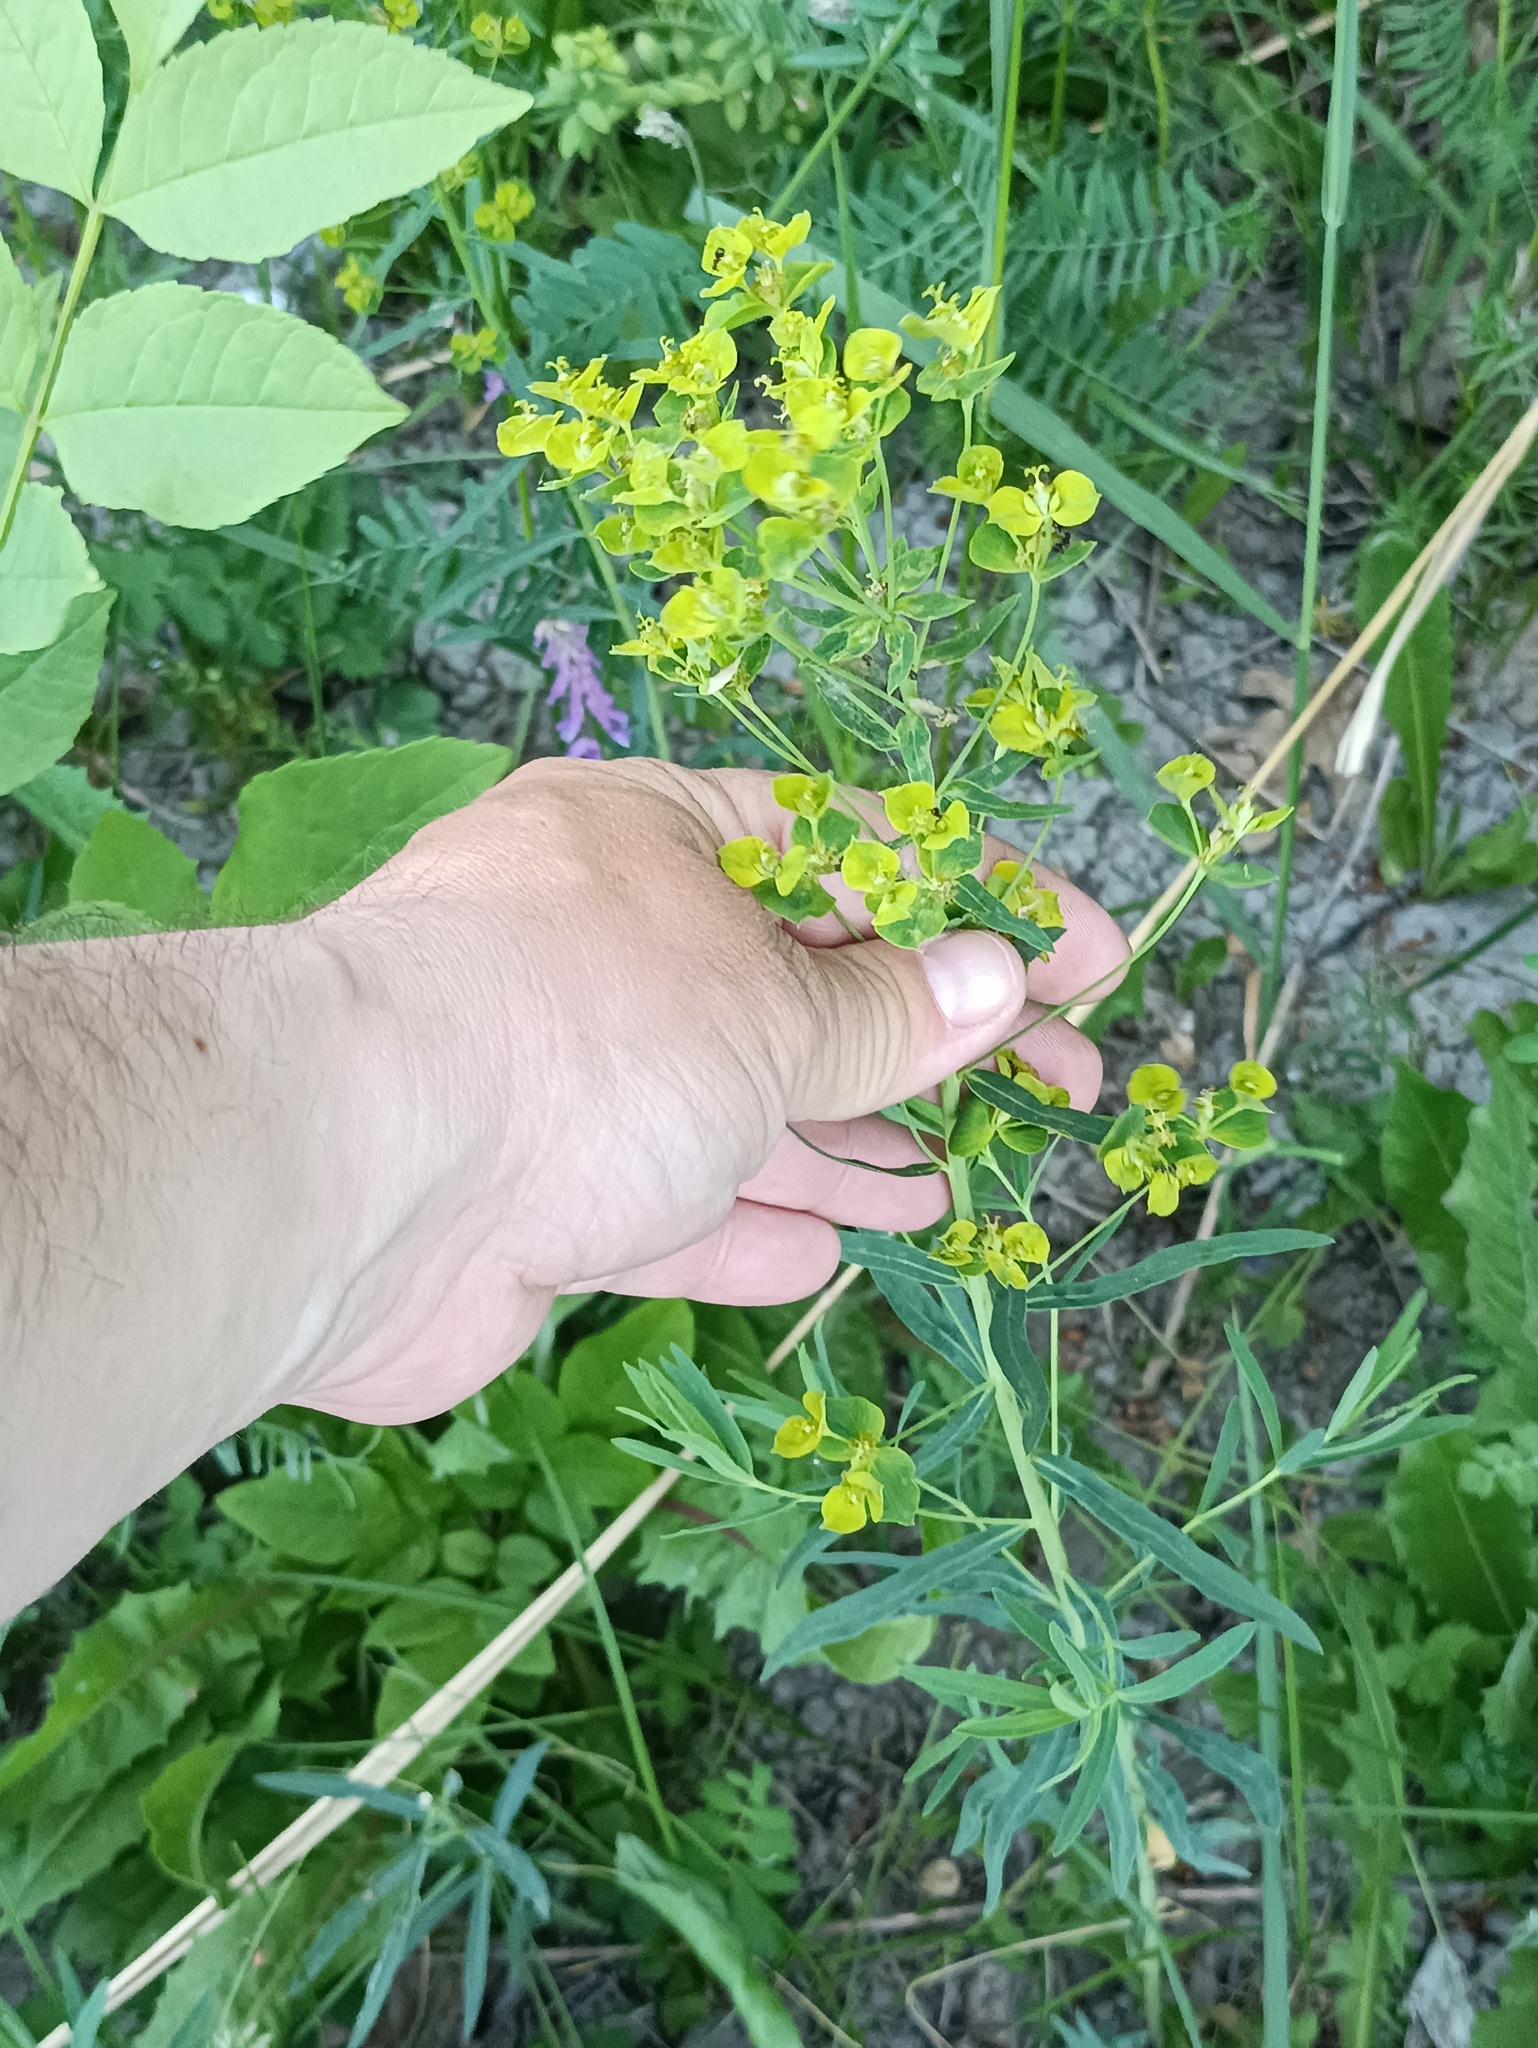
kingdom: Plantae
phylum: Tracheophyta
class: Magnoliopsida
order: Malpighiales
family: Euphorbiaceae
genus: Euphorbia
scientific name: Euphorbia virgata
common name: Leafy spurge
